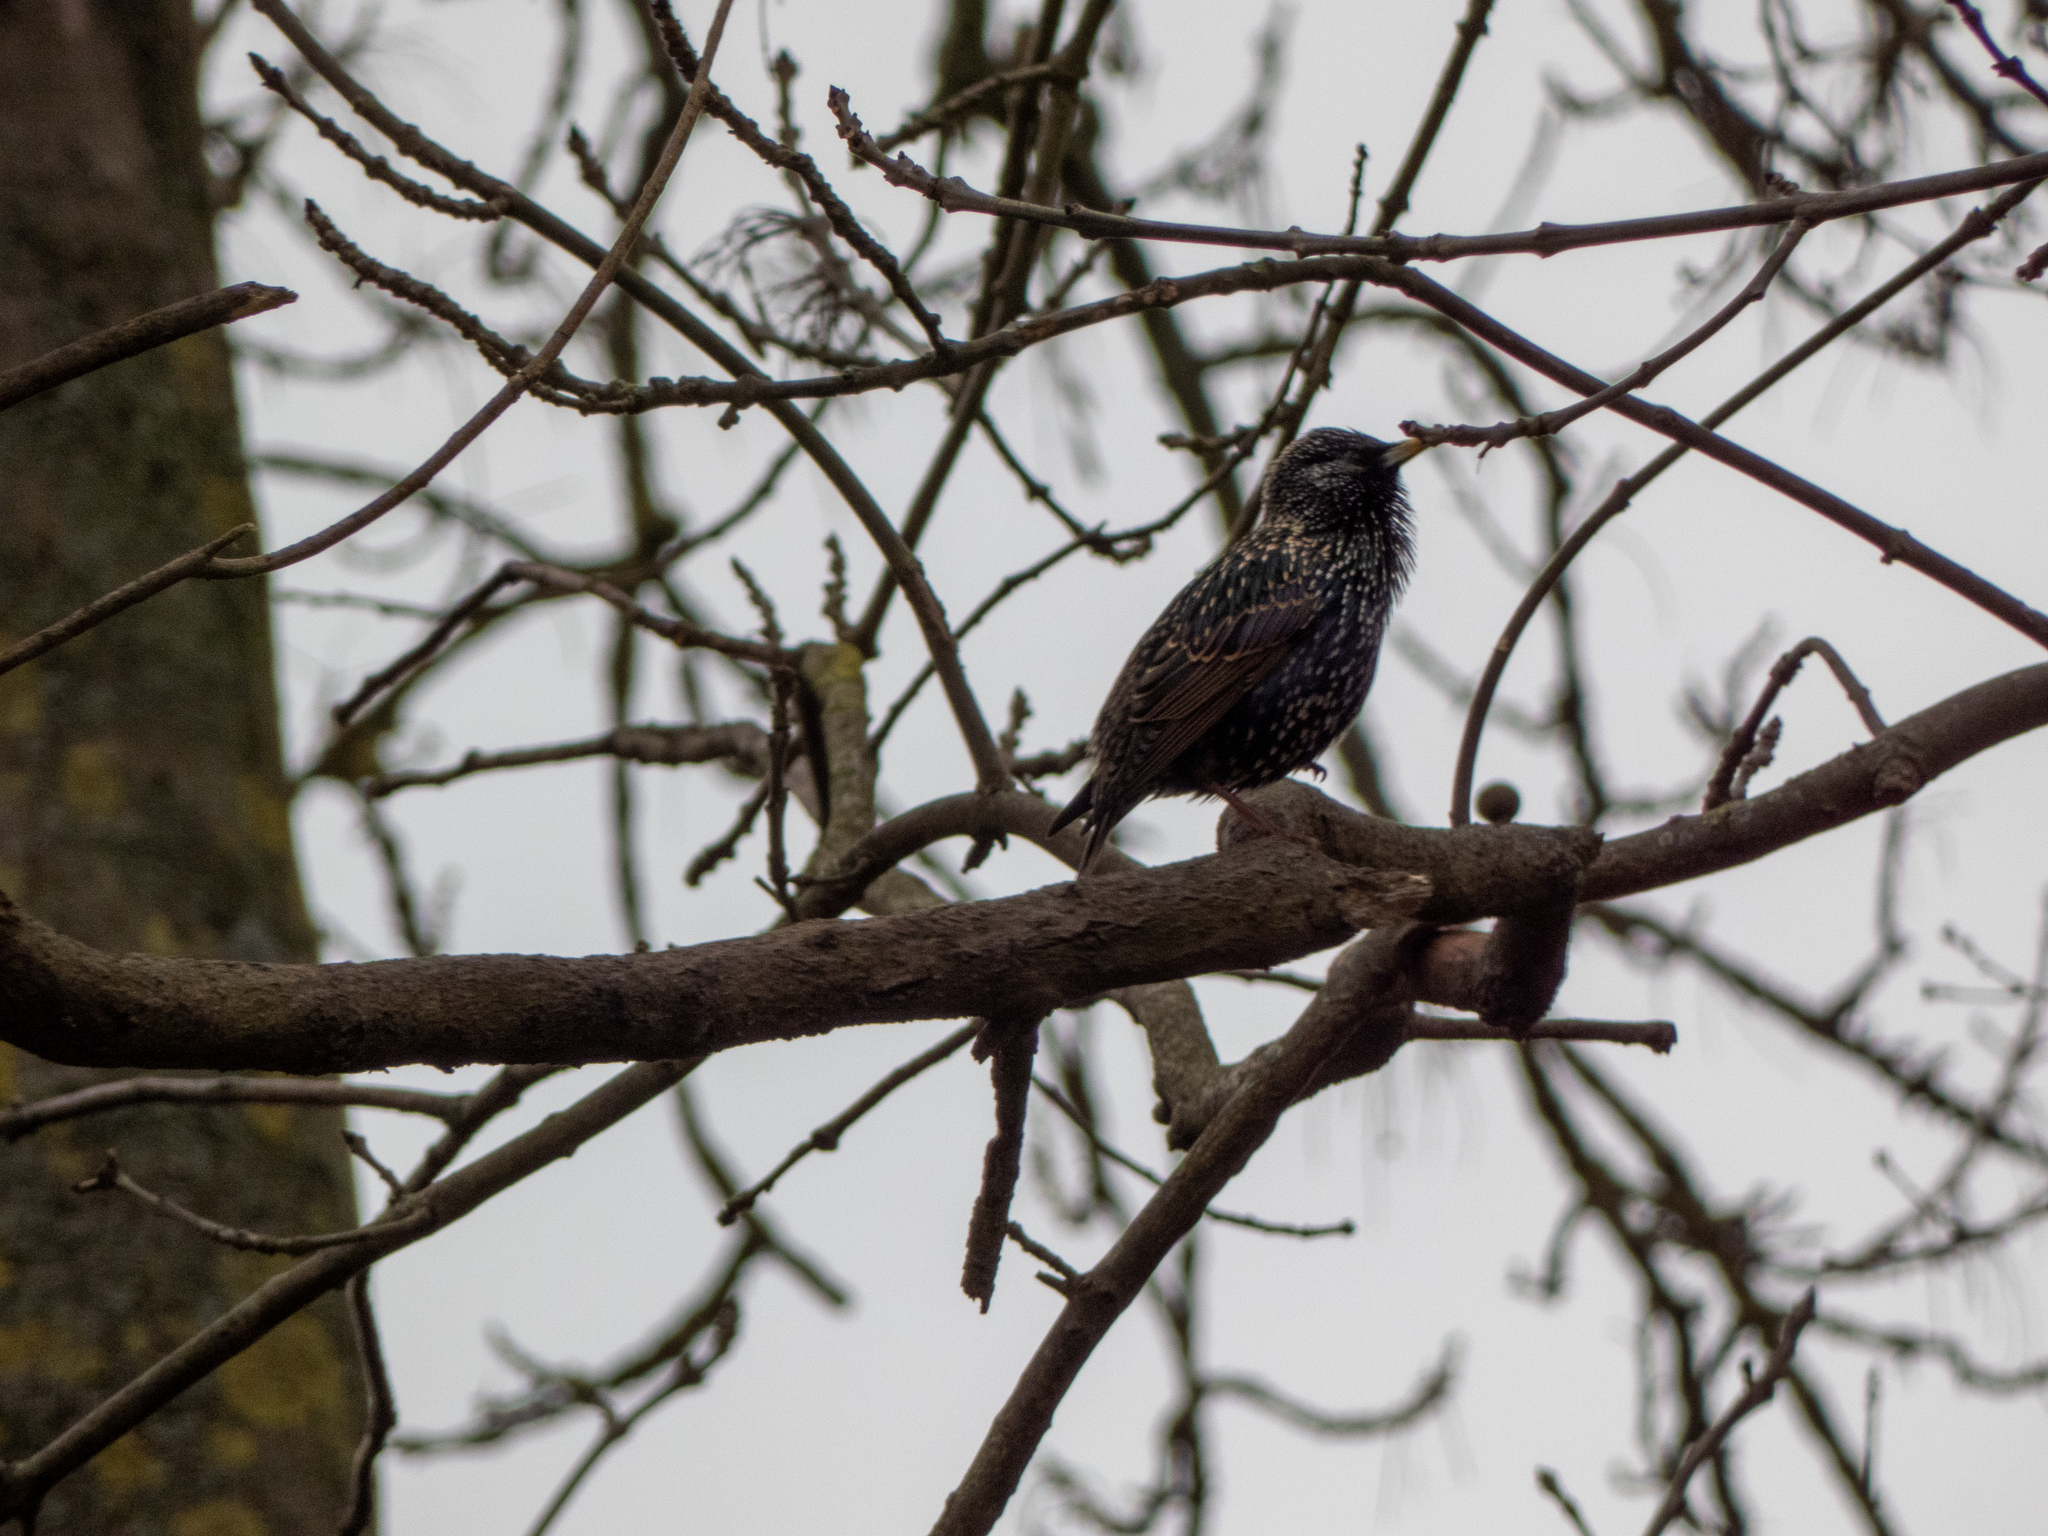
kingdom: Animalia
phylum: Chordata
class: Aves
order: Passeriformes
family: Sturnidae
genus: Sturnus
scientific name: Sturnus vulgaris
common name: Common starling
